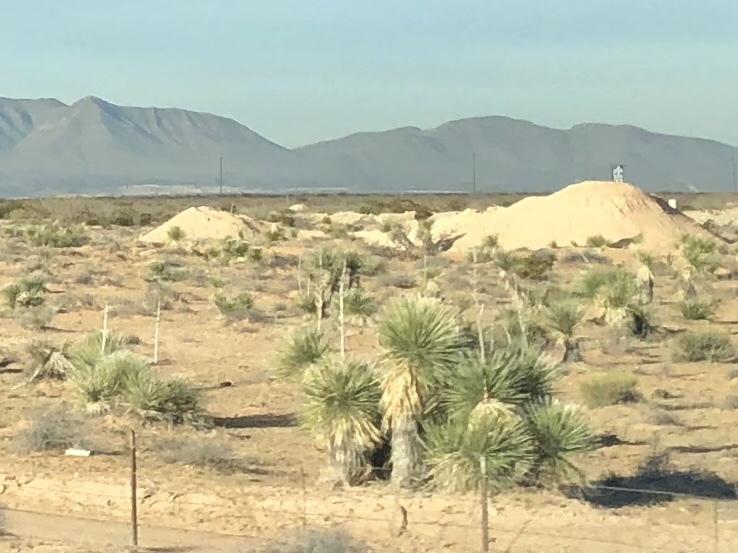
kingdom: Plantae
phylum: Tracheophyta
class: Liliopsida
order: Asparagales
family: Asparagaceae
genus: Yucca
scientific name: Yucca elata
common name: Palmella
